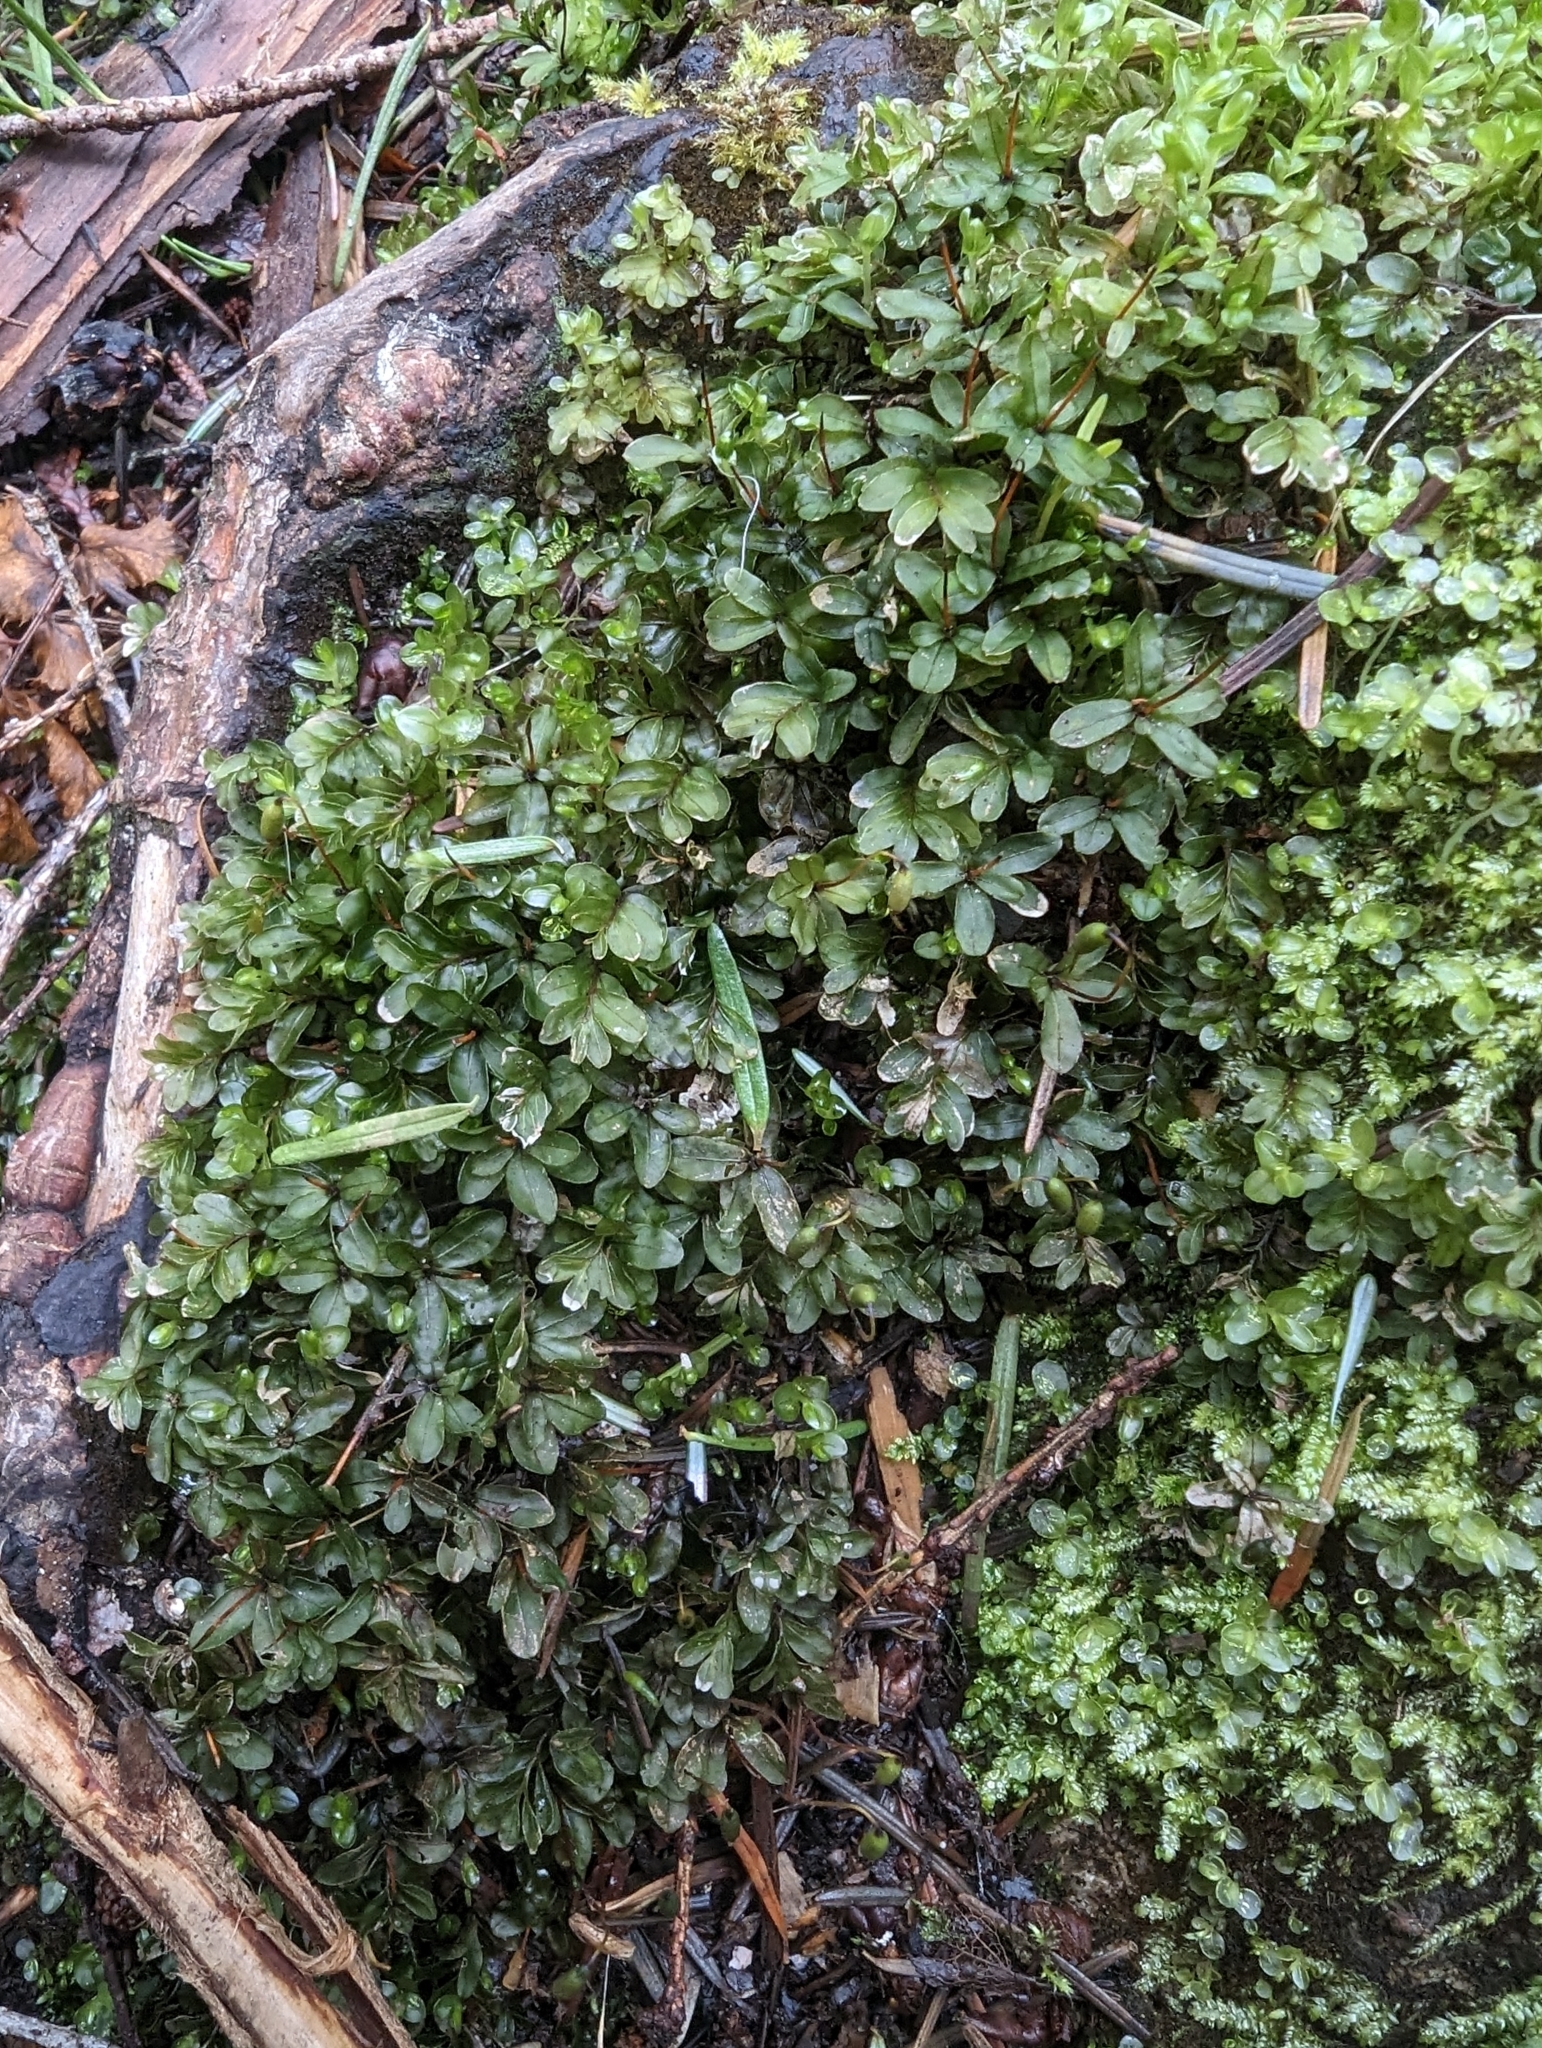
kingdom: Plantae
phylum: Bryophyta
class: Bryopsida
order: Bryales
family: Mniaceae
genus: Rhizomnium
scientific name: Rhizomnium glabrescens
